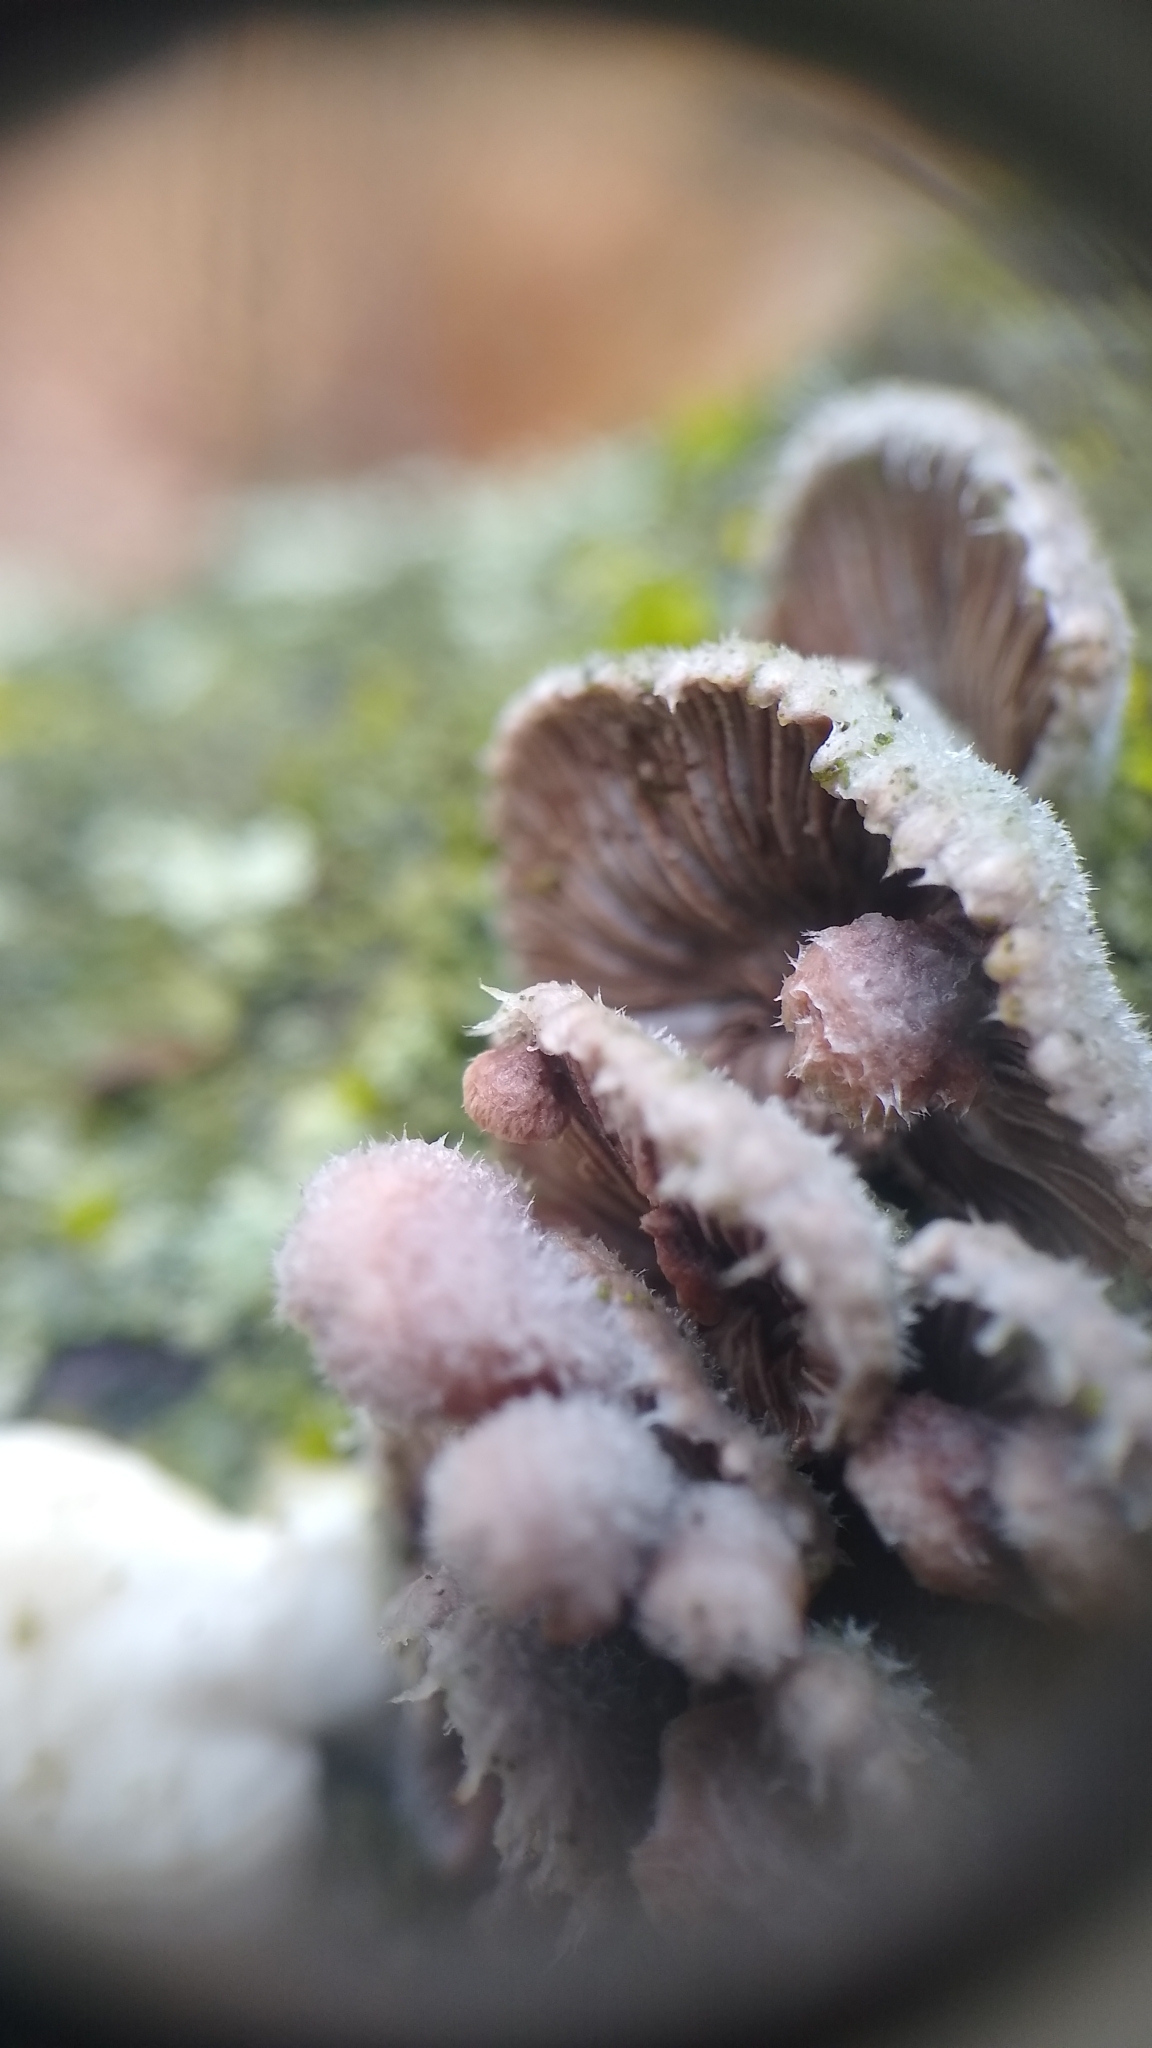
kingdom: Fungi
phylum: Basidiomycota
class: Agaricomycetes
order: Agaricales
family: Schizophyllaceae
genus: Schizophyllum
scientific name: Schizophyllum commune
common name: Common porecrust
